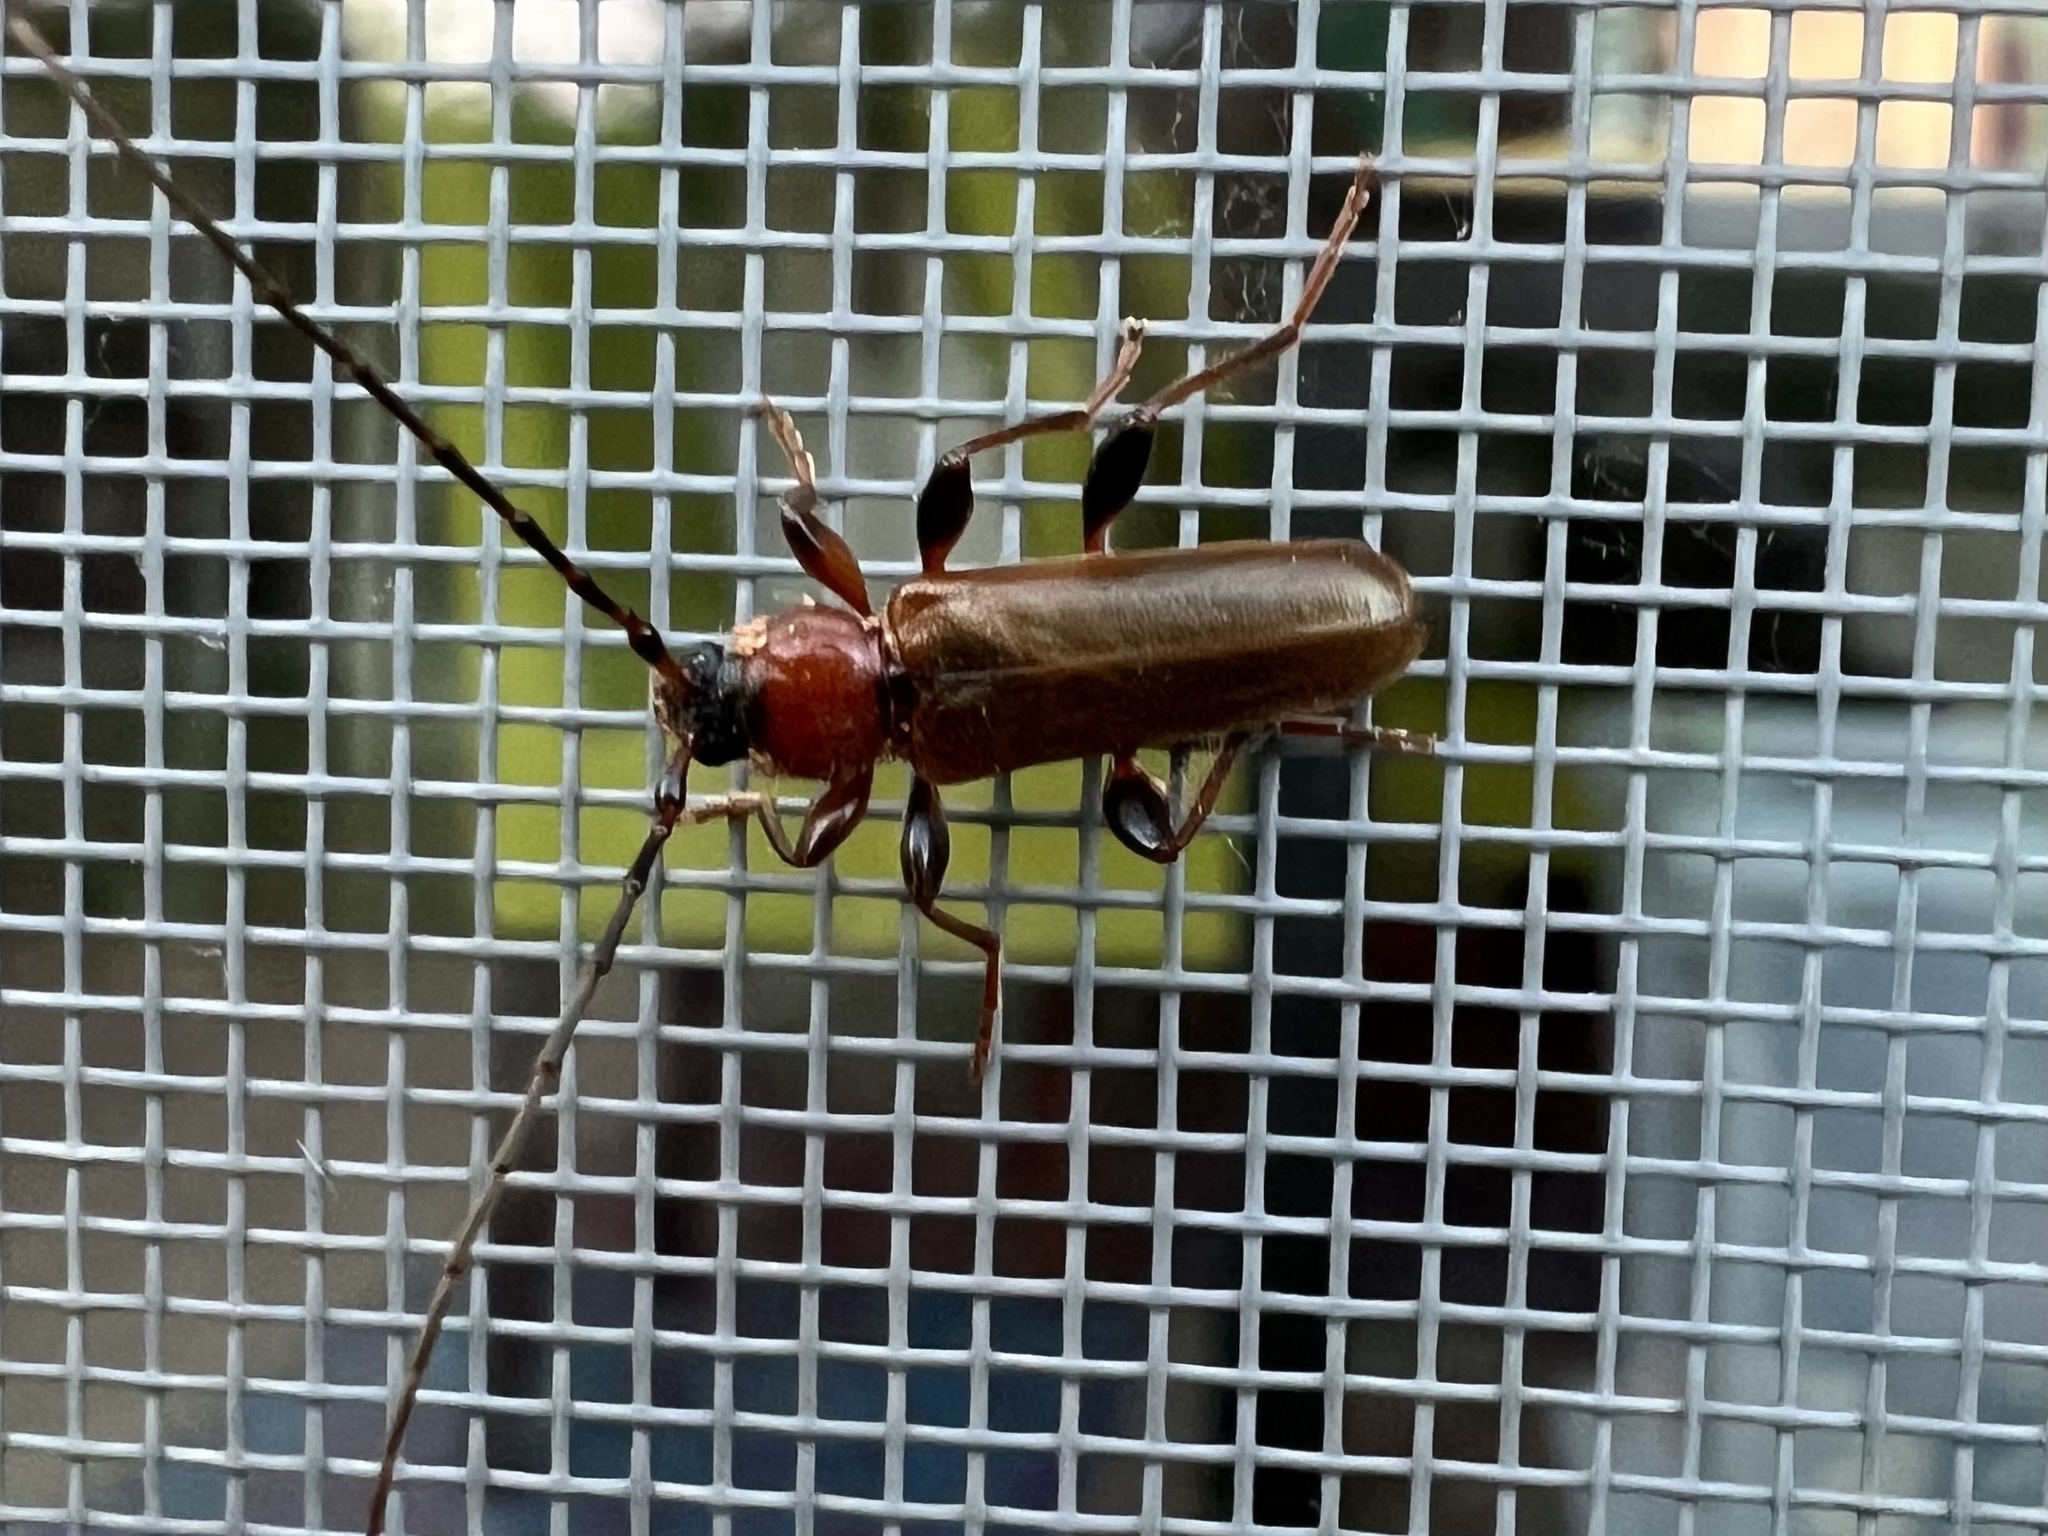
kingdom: Animalia
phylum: Arthropoda
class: Insecta
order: Coleoptera
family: Cerambycidae
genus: Phymatodes
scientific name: Phymatodes testaceus
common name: Long-horned beetle
